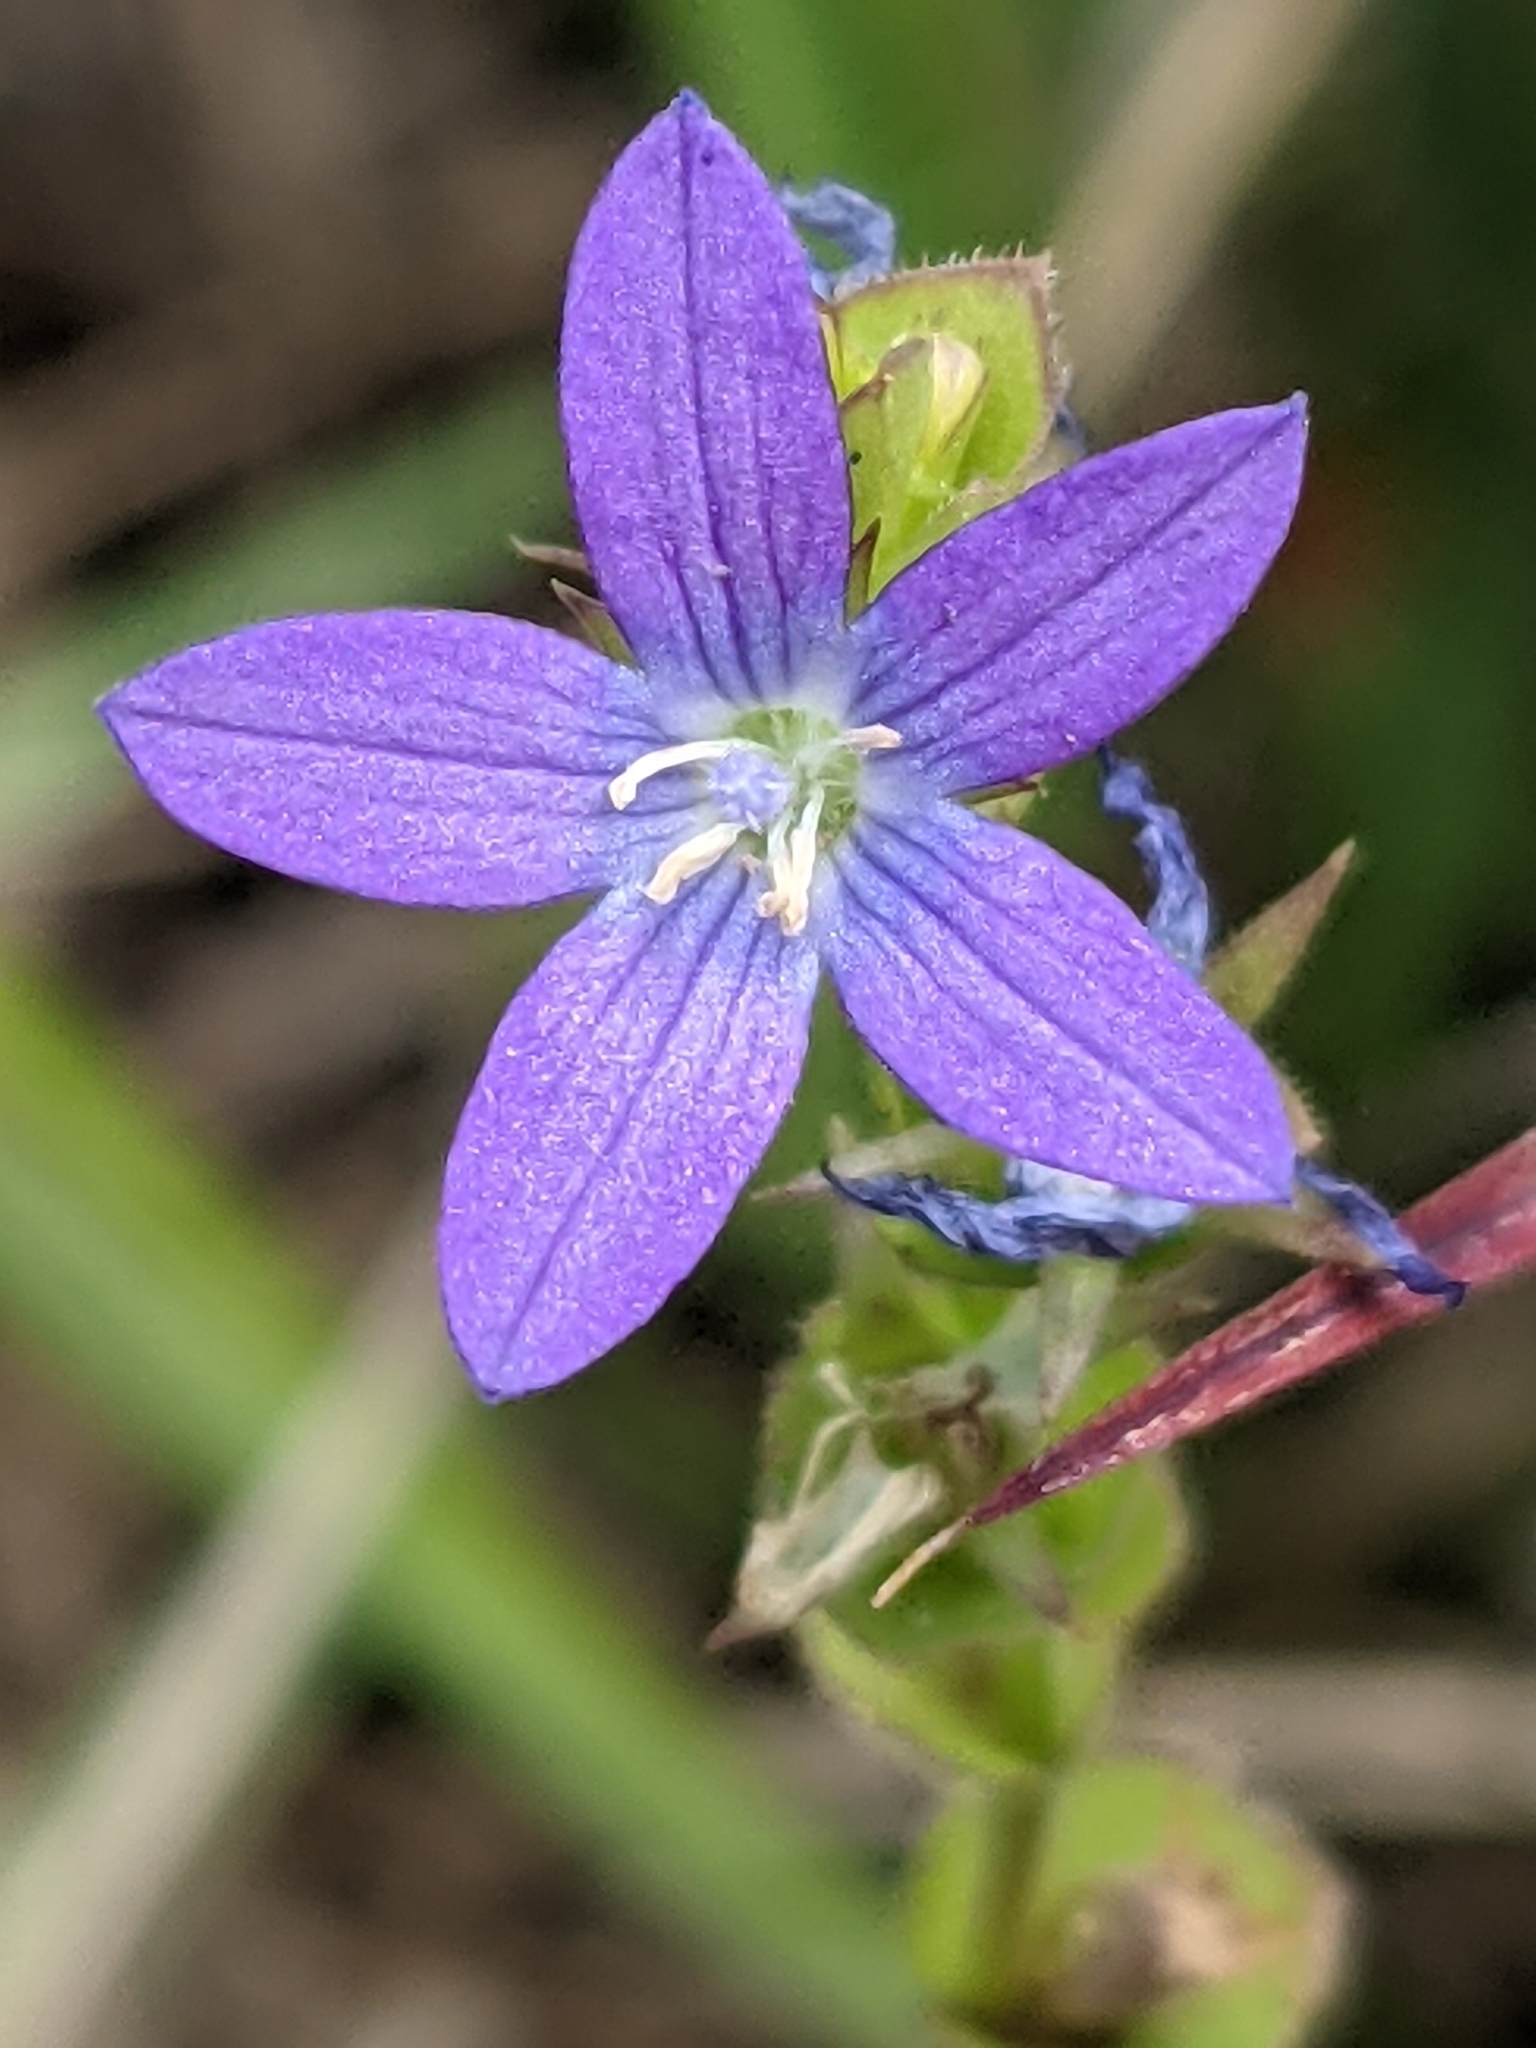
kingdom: Plantae
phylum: Tracheophyta
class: Magnoliopsida
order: Asterales
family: Campanulaceae
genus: Triodanis
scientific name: Triodanis perfoliata
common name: Clasping venus' looking-glass
